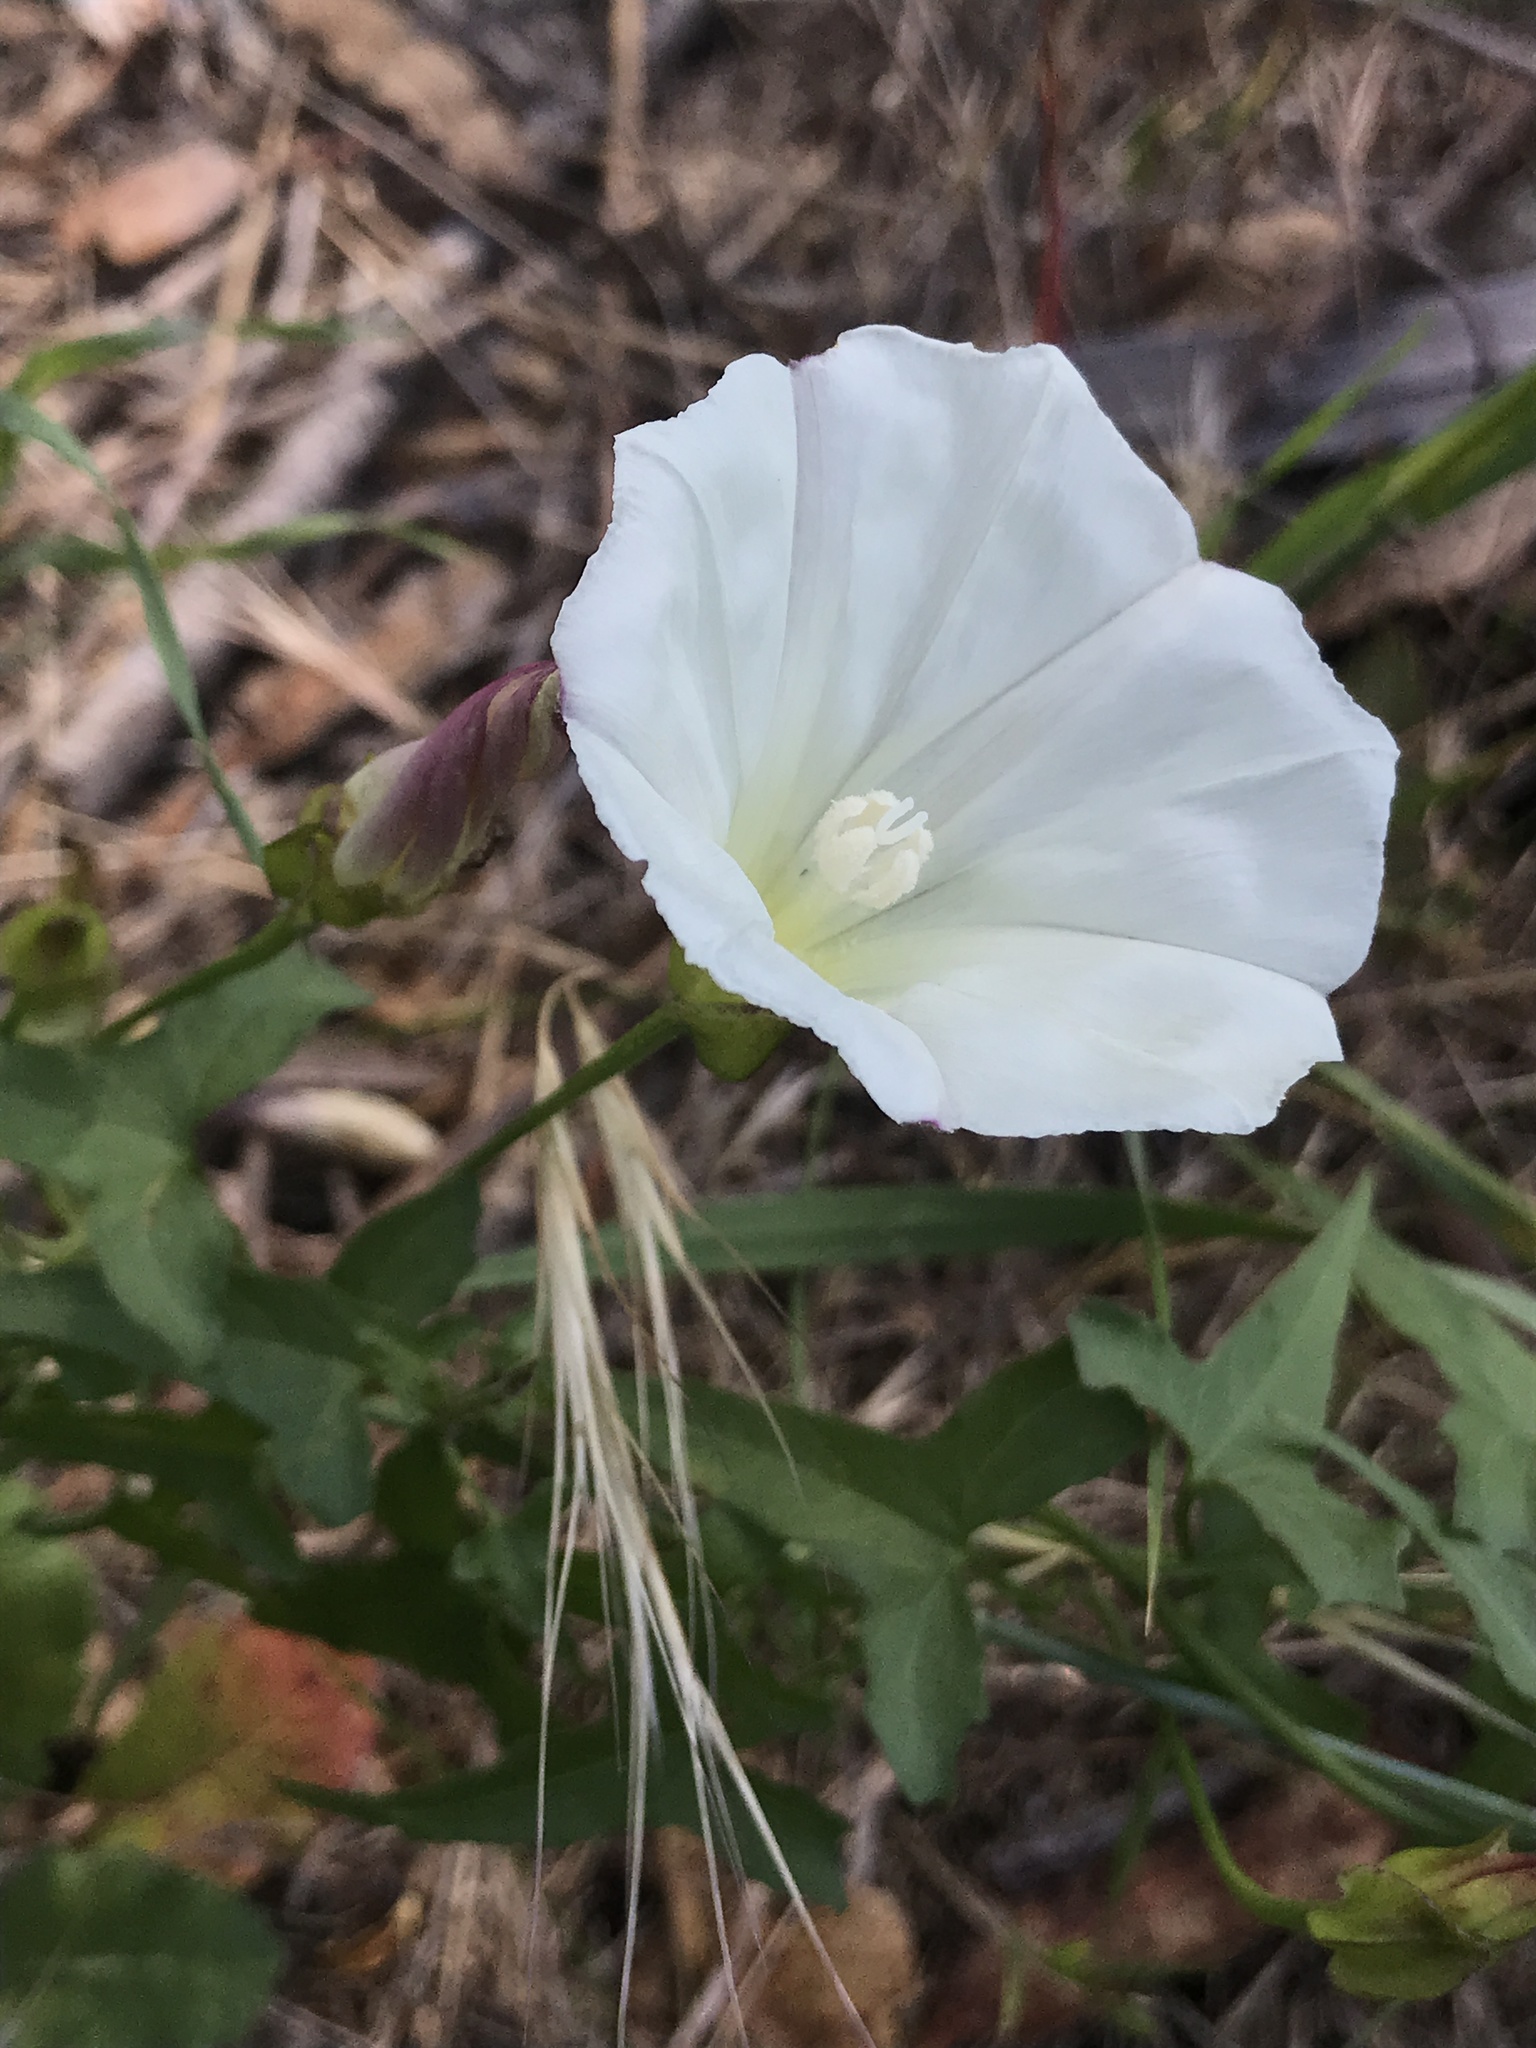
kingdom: Plantae
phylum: Tracheophyta
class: Magnoliopsida
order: Solanales
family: Convolvulaceae
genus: Calystegia
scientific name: Calystegia macrostegia
